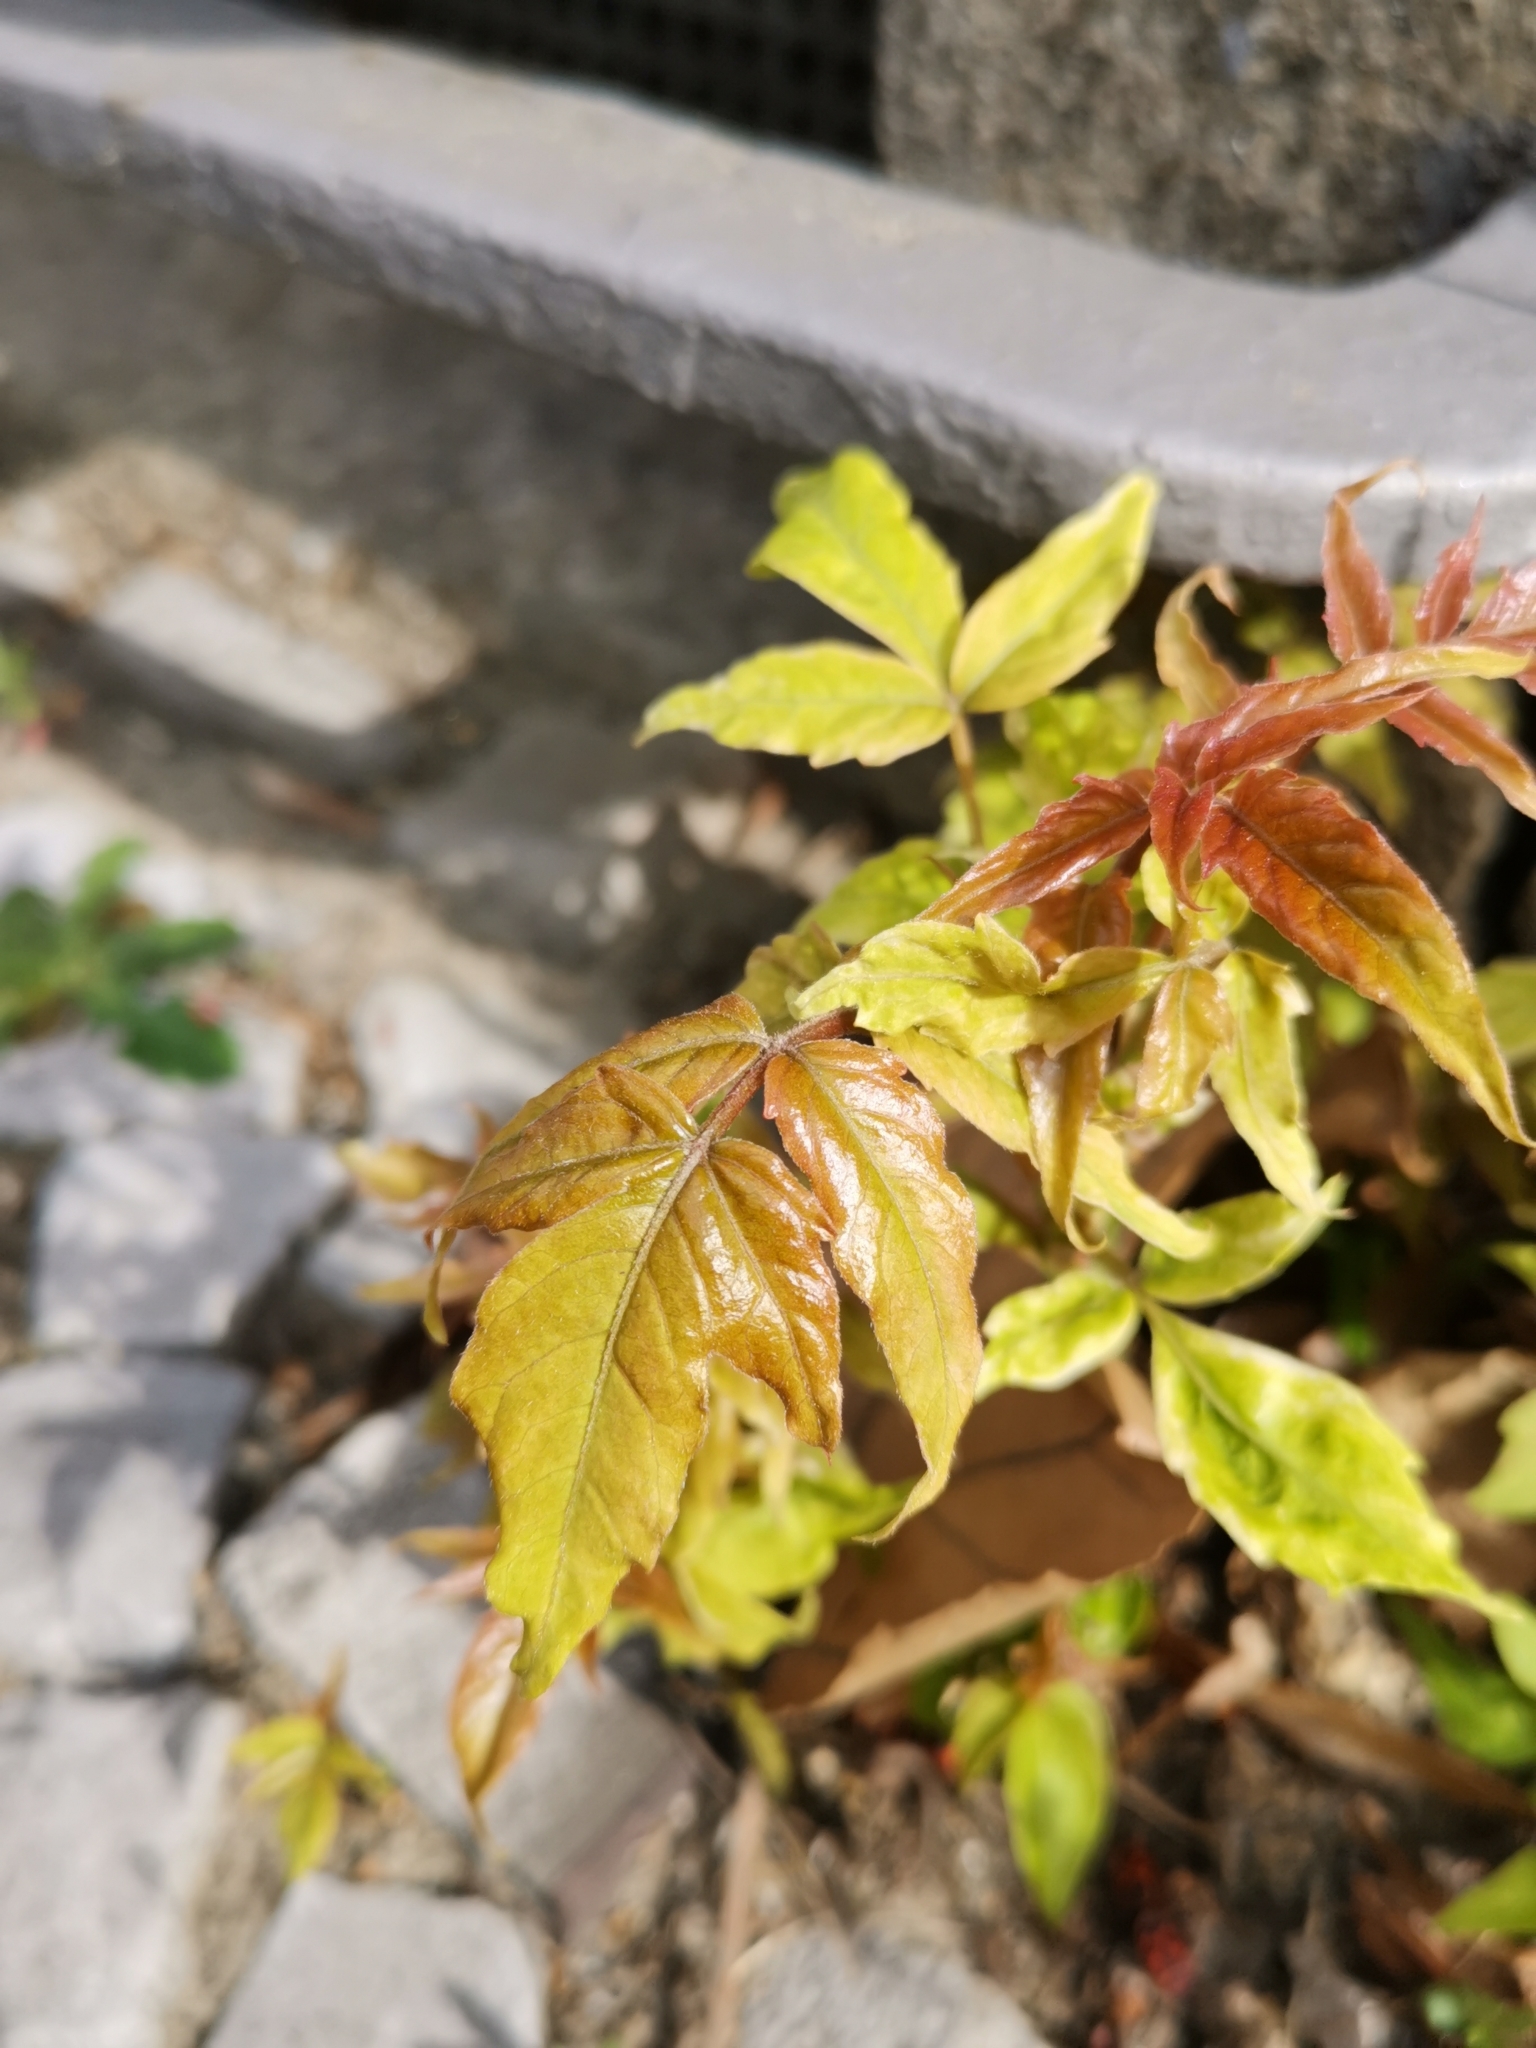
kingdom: Plantae
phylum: Tracheophyta
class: Magnoliopsida
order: Sapindales
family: Simaroubaceae
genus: Ailanthus
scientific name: Ailanthus altissima
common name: Tree-of-heaven
